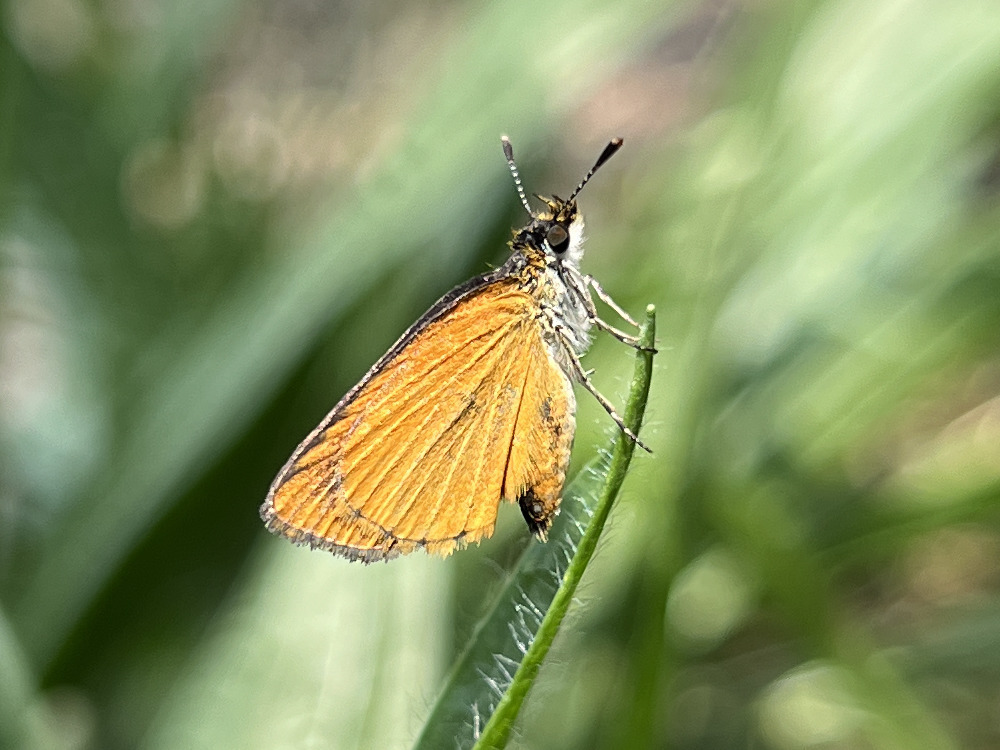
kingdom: Animalia
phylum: Arthropoda
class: Insecta
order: Lepidoptera
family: Hesperiidae
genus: Ancyloxypha
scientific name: Ancyloxypha numitor
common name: Least skipper
